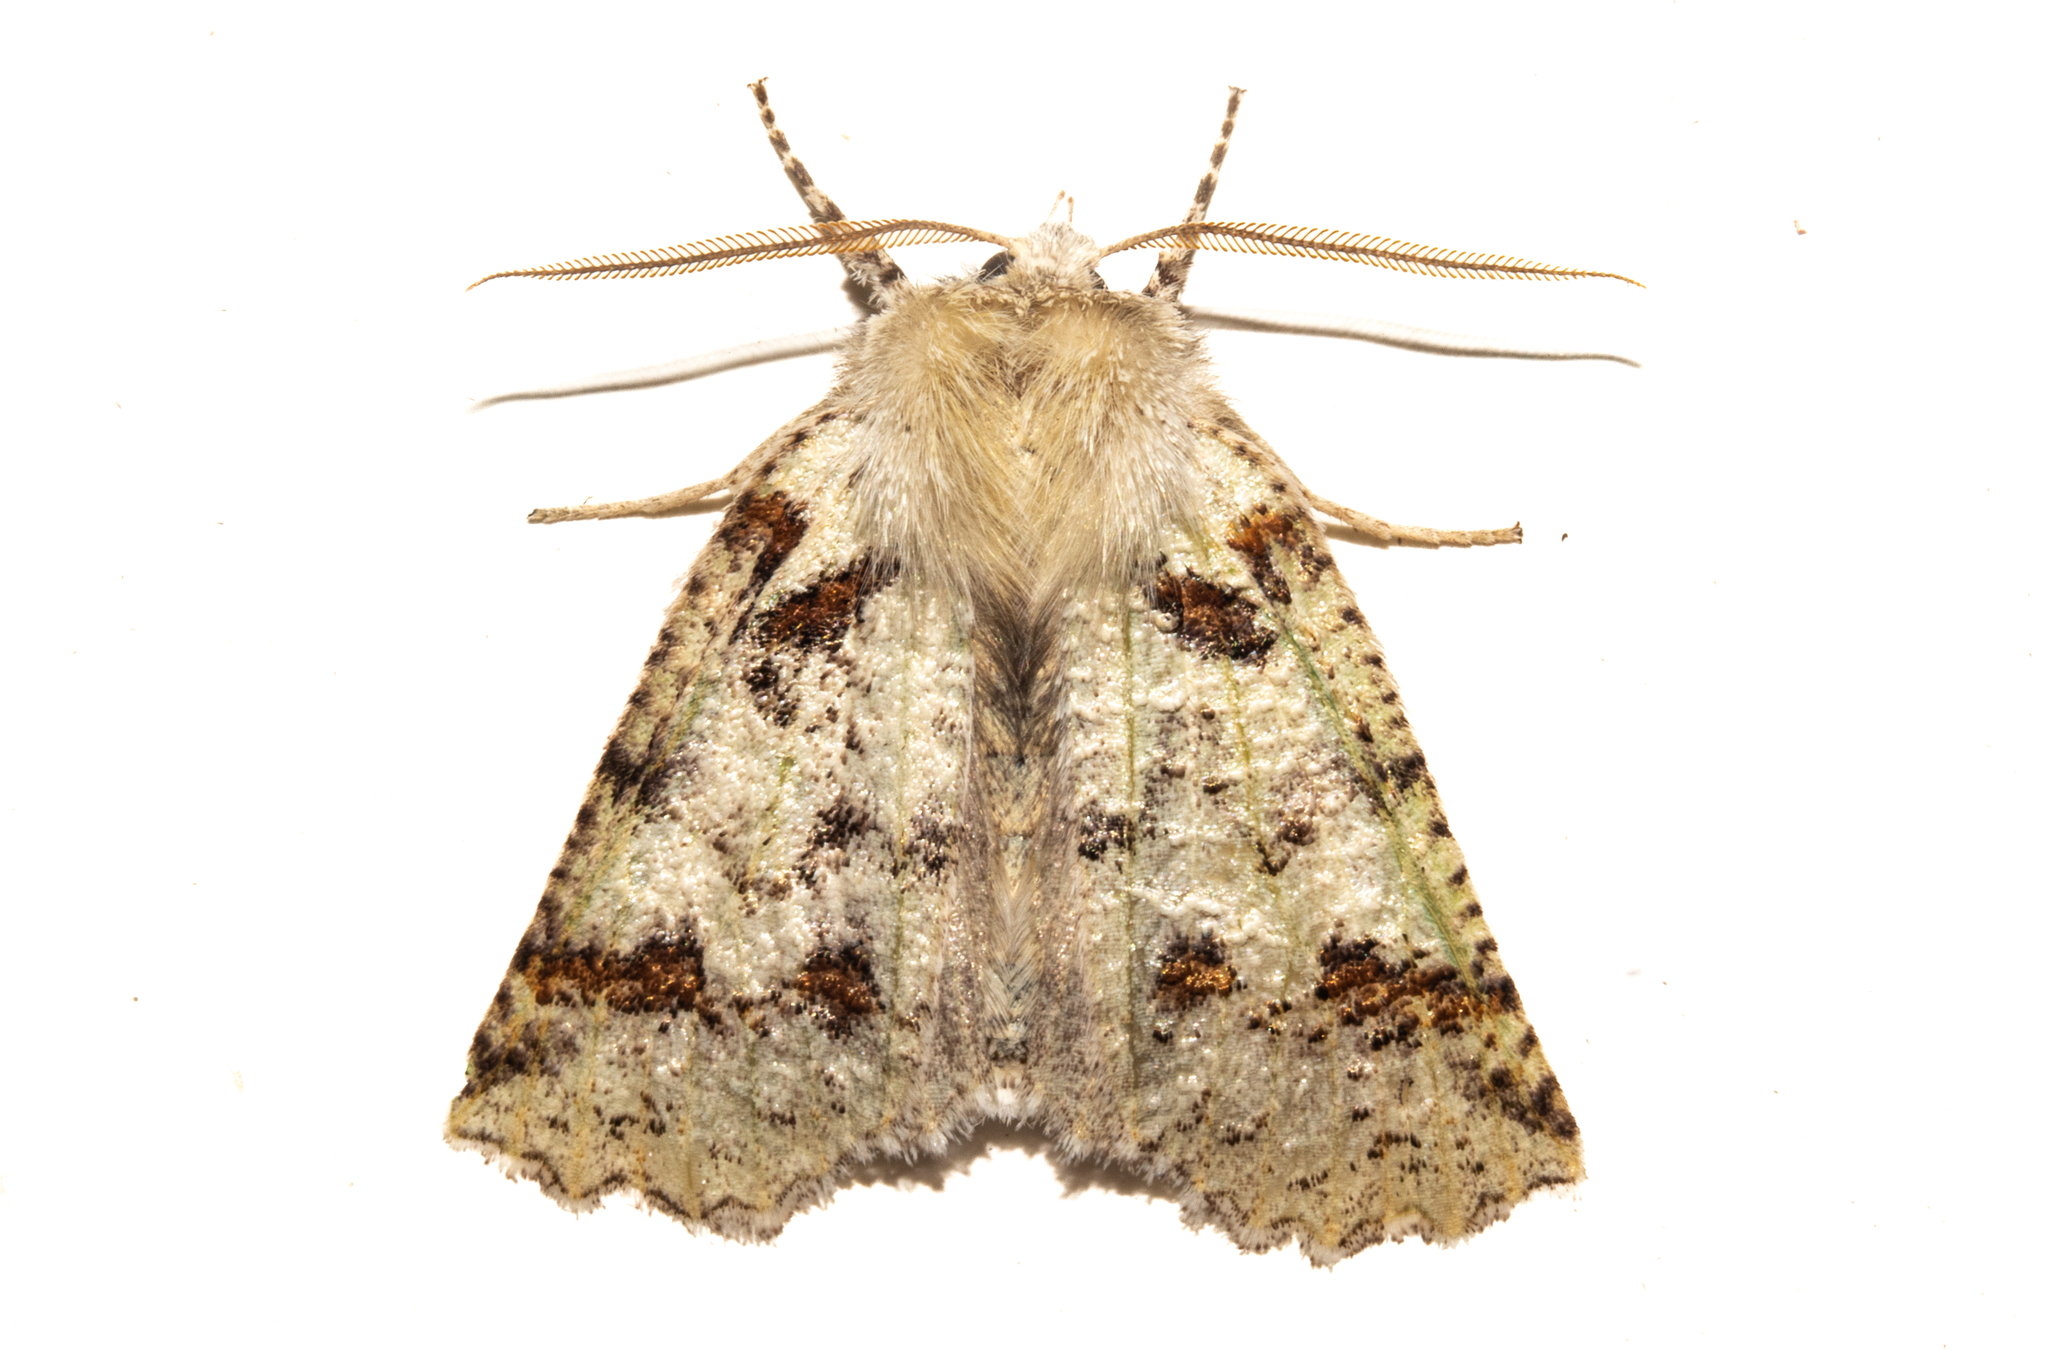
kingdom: Animalia
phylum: Arthropoda
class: Insecta
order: Lepidoptera
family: Geometridae
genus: Declana
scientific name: Declana floccosa
